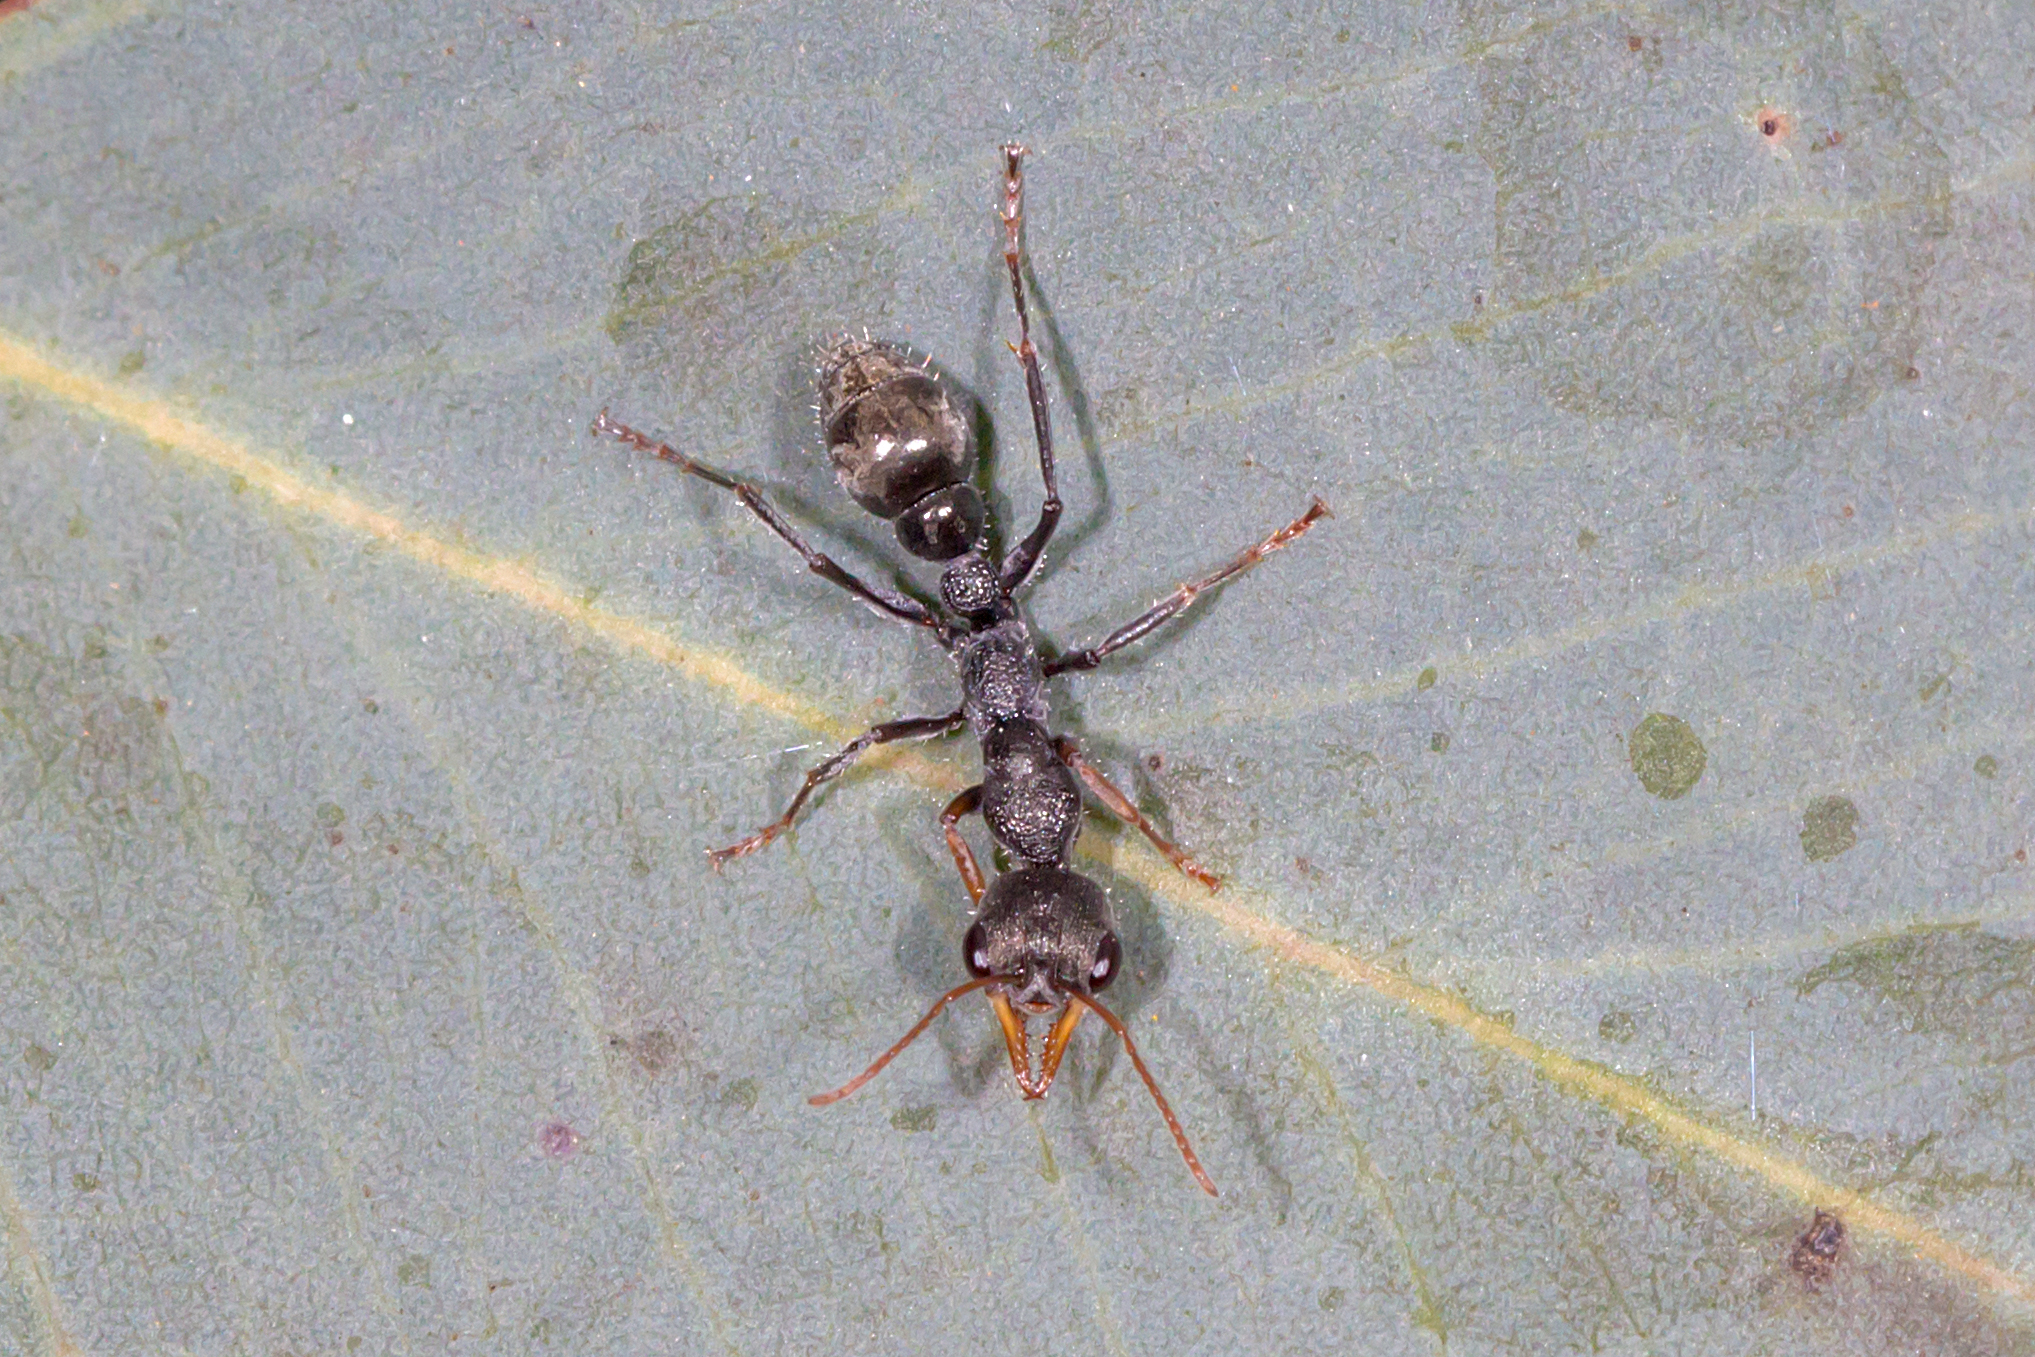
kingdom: Animalia
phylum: Arthropoda
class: Insecta
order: Hymenoptera
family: Formicidae
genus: Myrmecia
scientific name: Myrmecia urens
